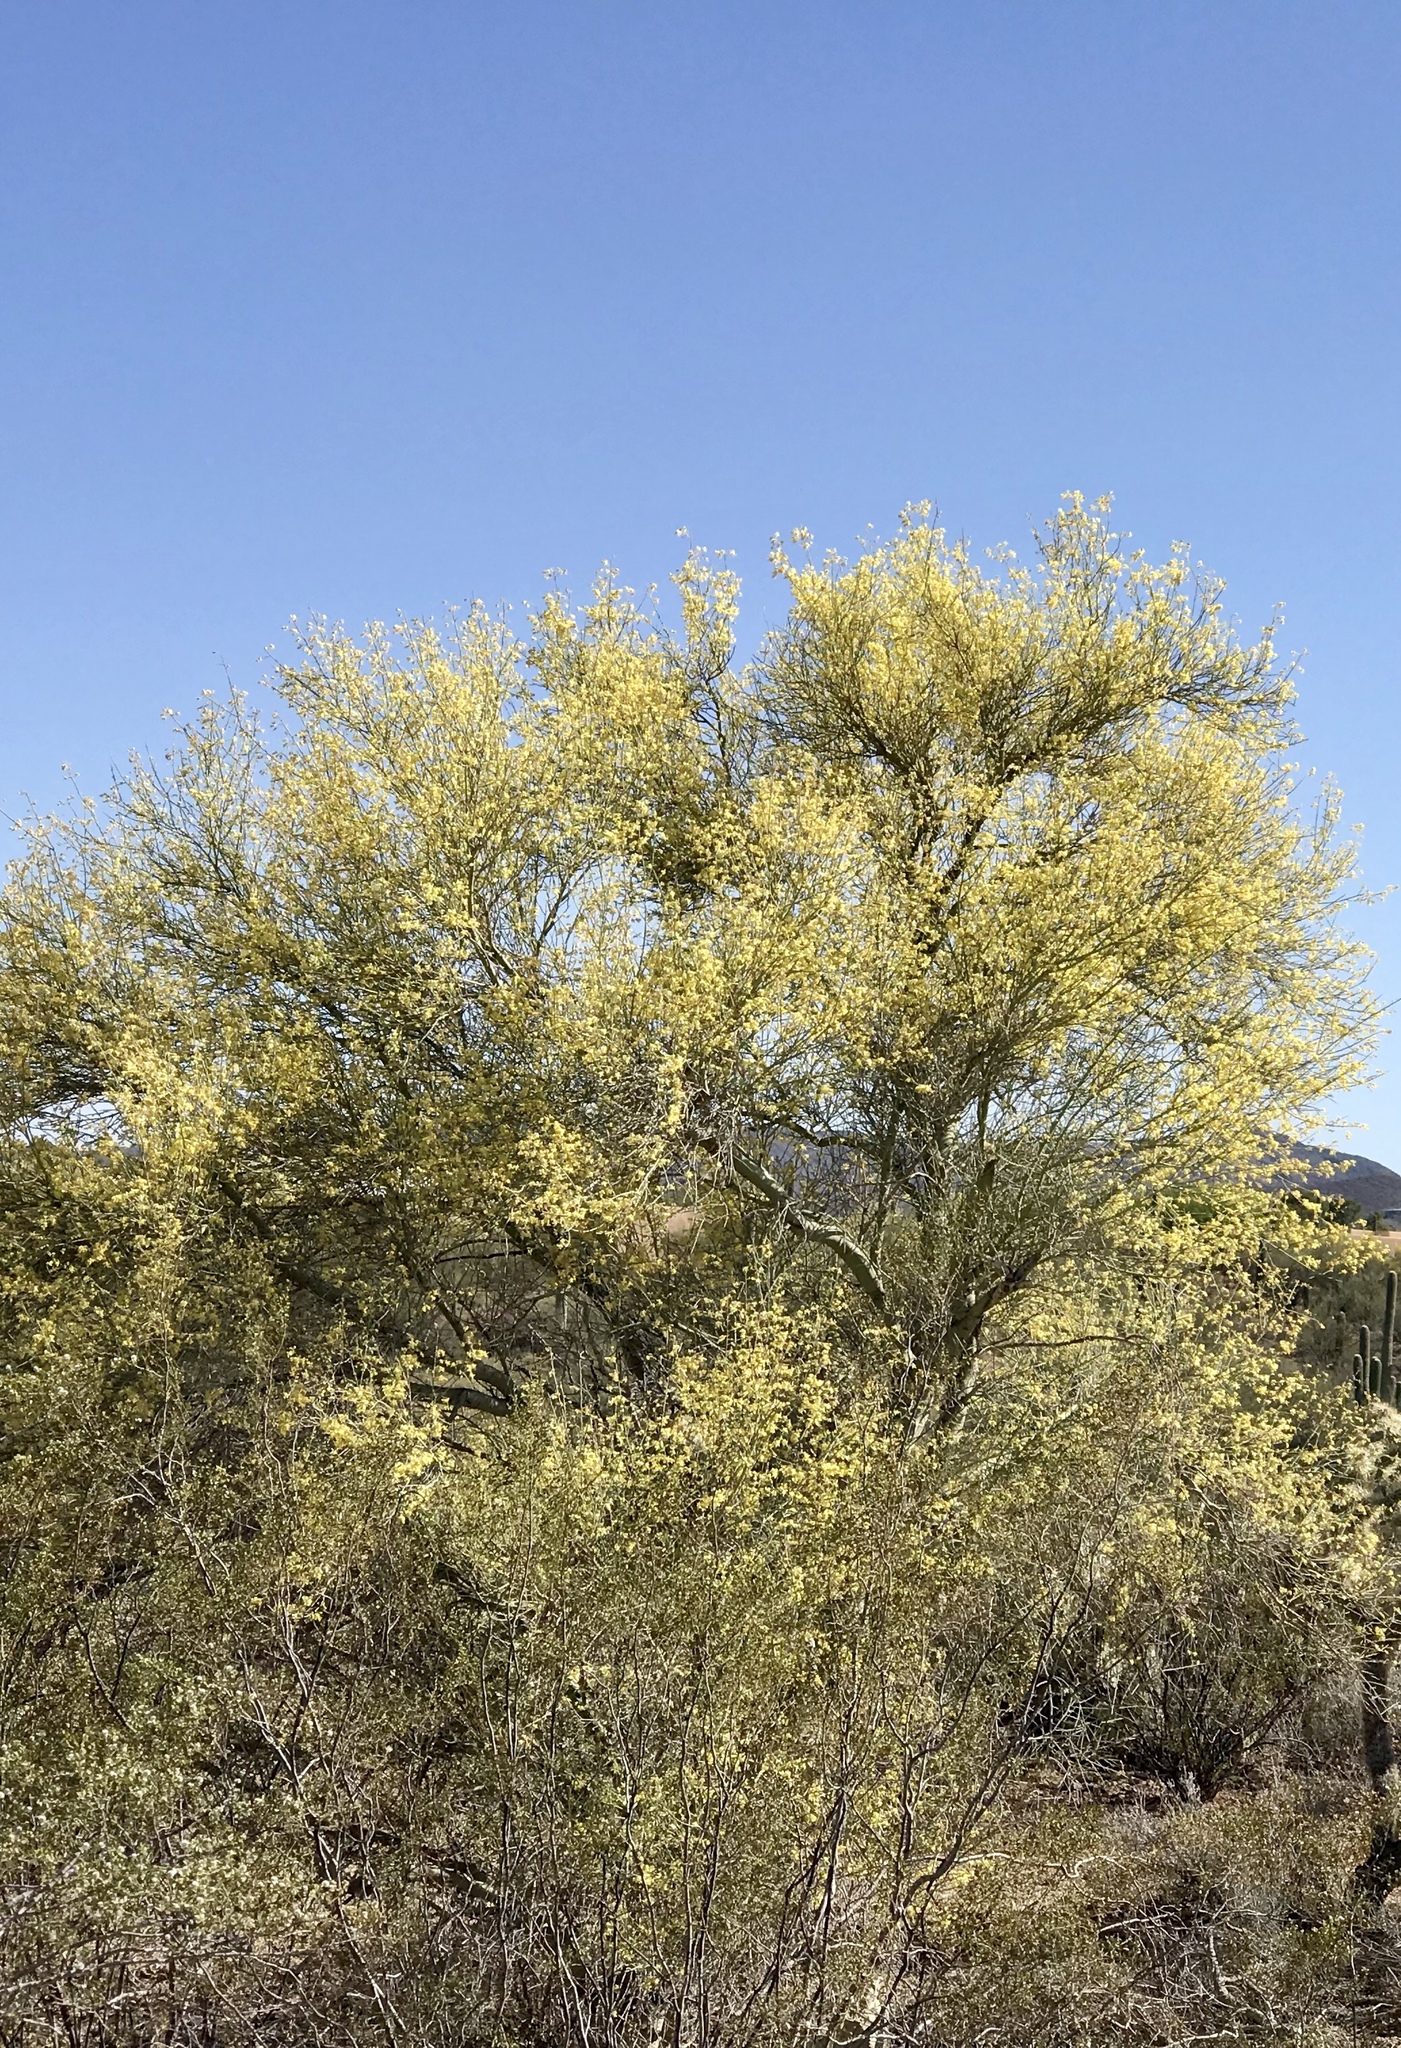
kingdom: Plantae
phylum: Tracheophyta
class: Magnoliopsida
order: Fabales
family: Fabaceae
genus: Parkinsonia
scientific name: Parkinsonia microphylla
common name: Yellow paloverde
